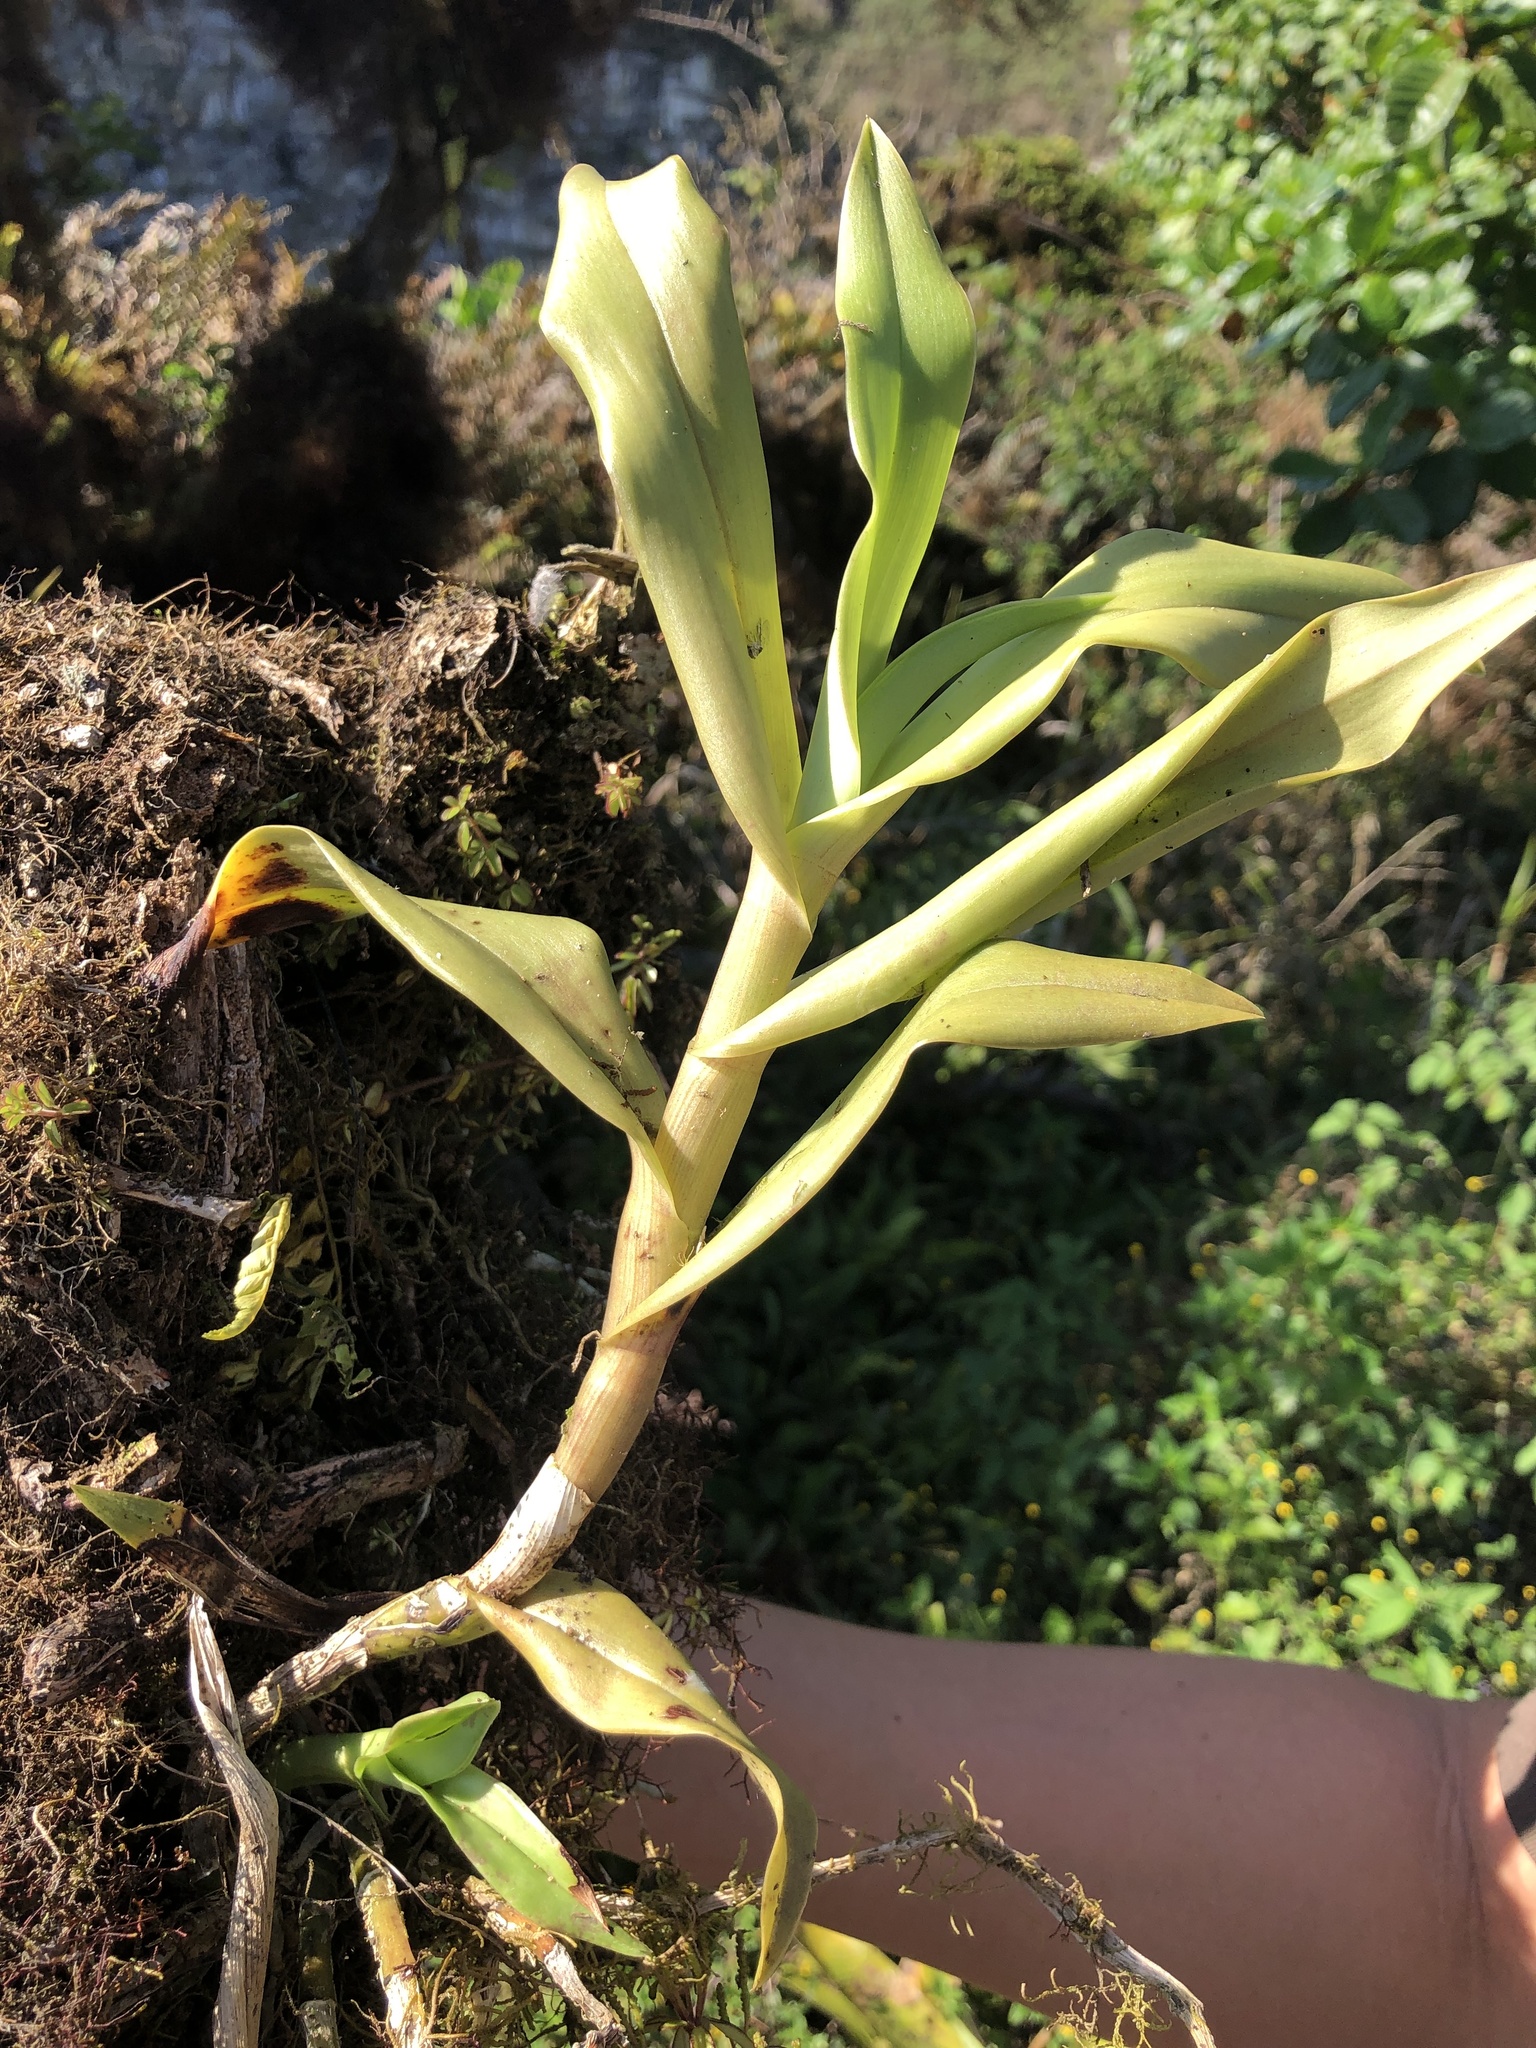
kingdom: Plantae
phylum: Tracheophyta
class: Liliopsida
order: Asparagales
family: Orchidaceae
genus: Epidendrum
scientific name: Epidendrum spicatum
